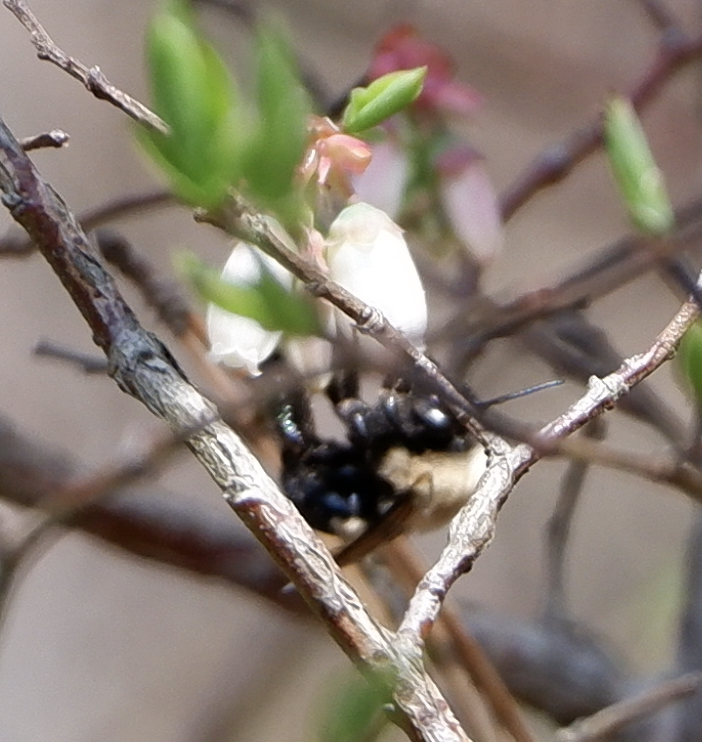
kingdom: Animalia
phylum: Arthropoda
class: Insecta
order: Hymenoptera
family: Apidae
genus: Habropoda
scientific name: Habropoda laboriosa
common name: Southeastern blueberry bee
